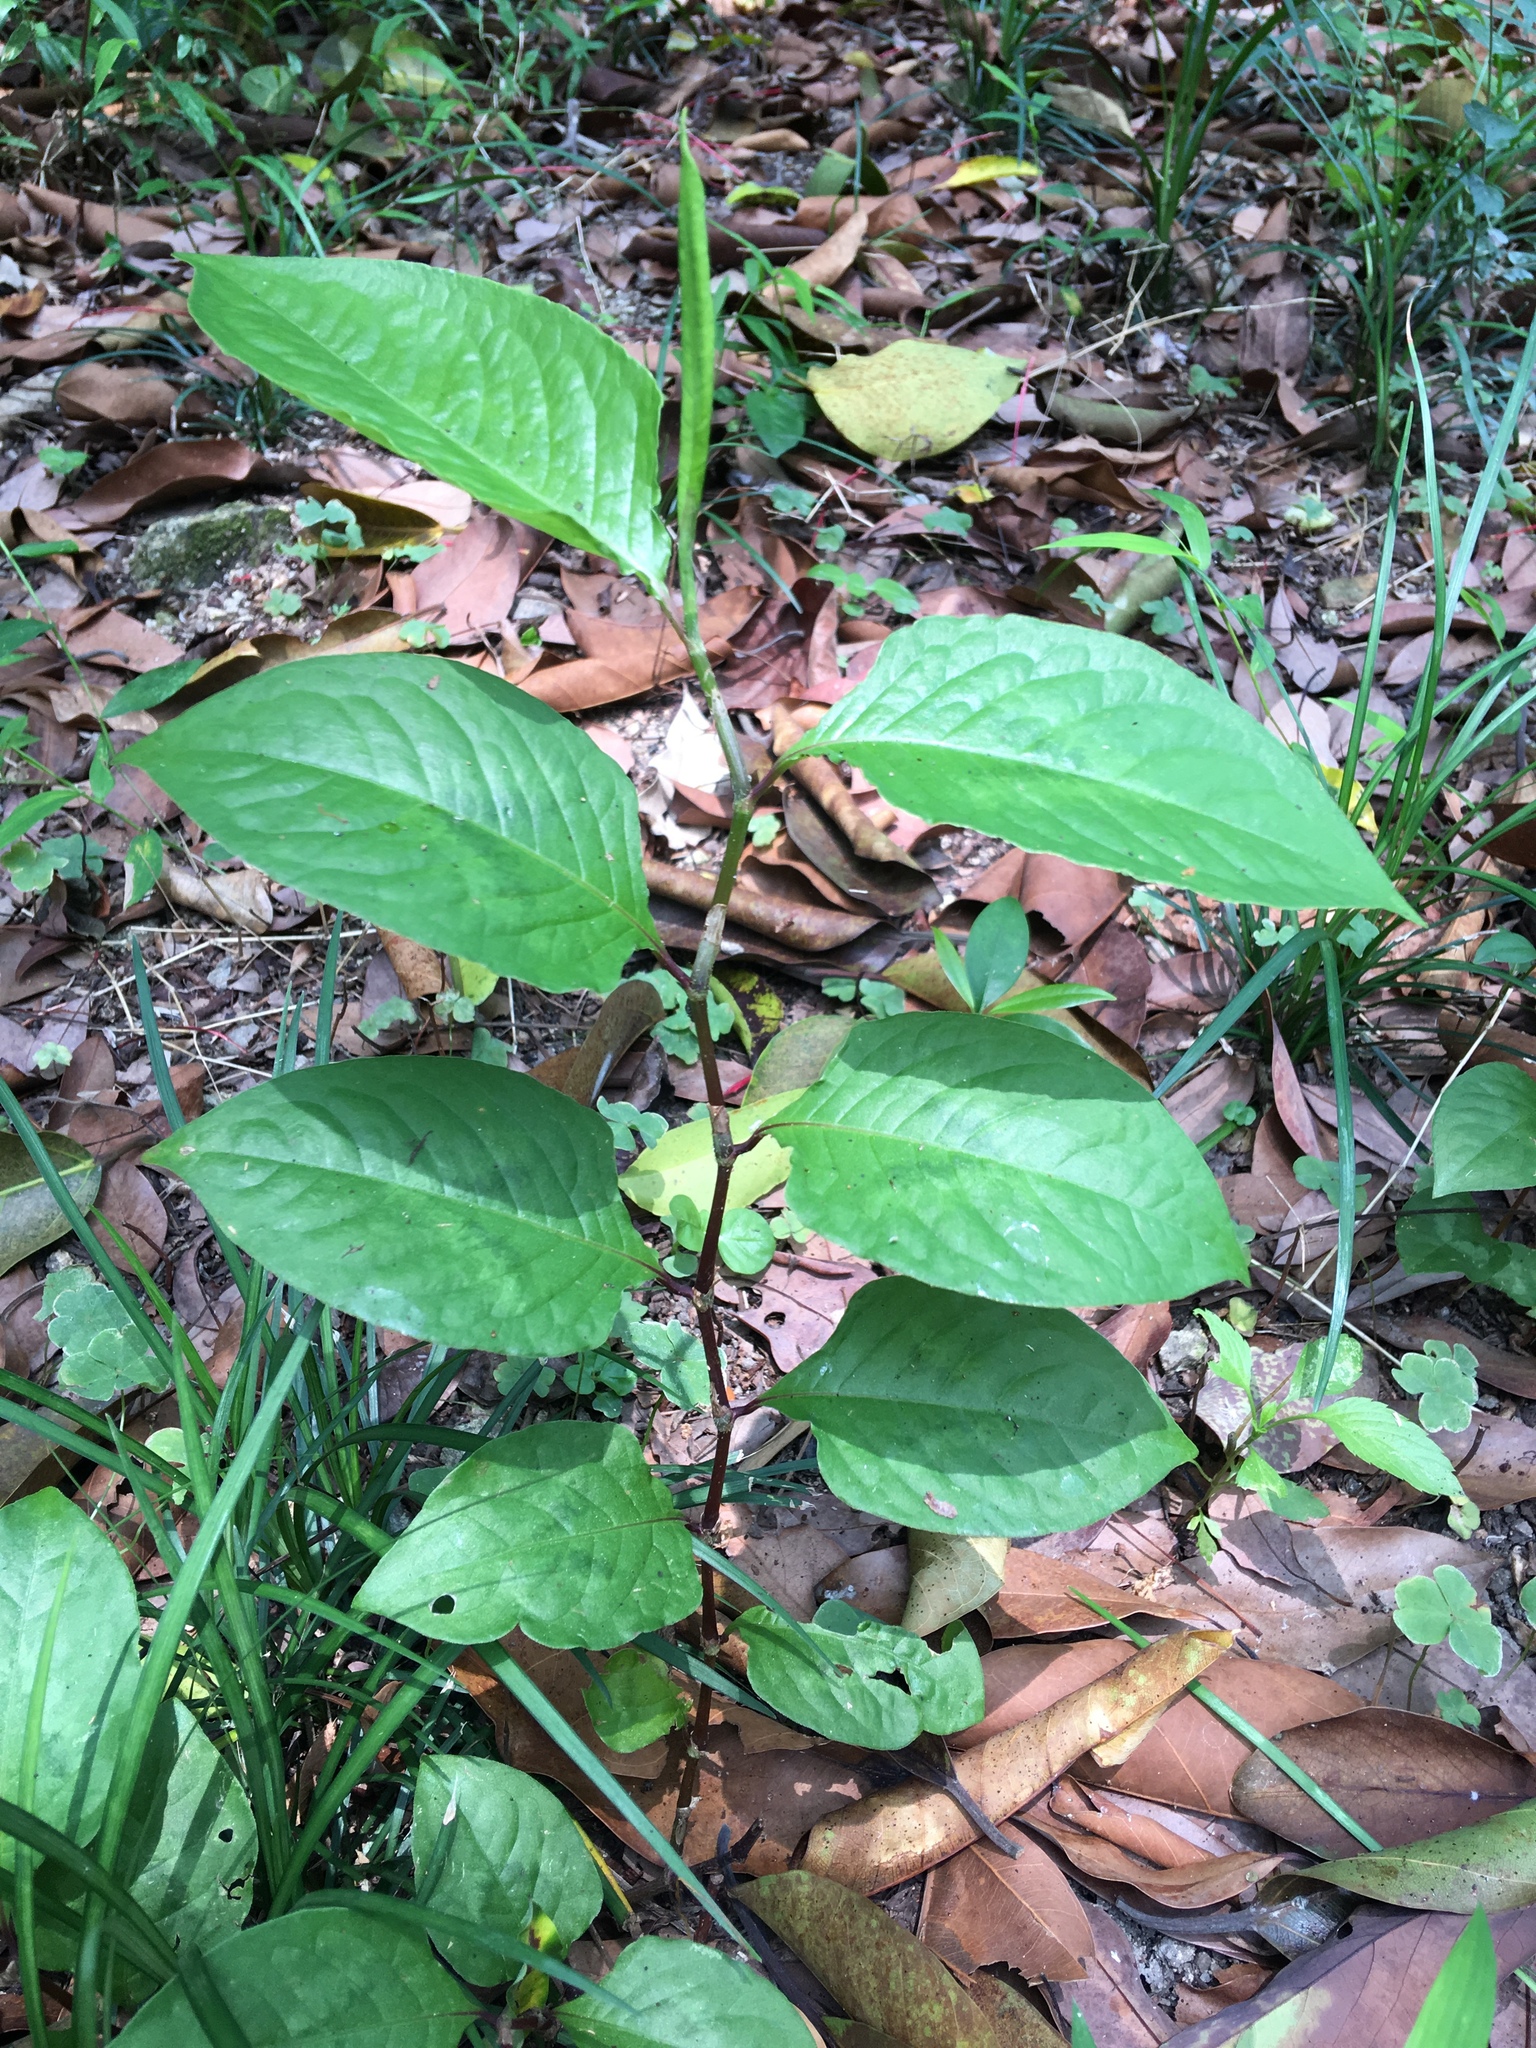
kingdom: Plantae
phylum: Tracheophyta
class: Magnoliopsida
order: Caryophyllales
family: Polygonaceae
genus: Persicaria
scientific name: Persicaria chinensis
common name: Chinese knotweed
